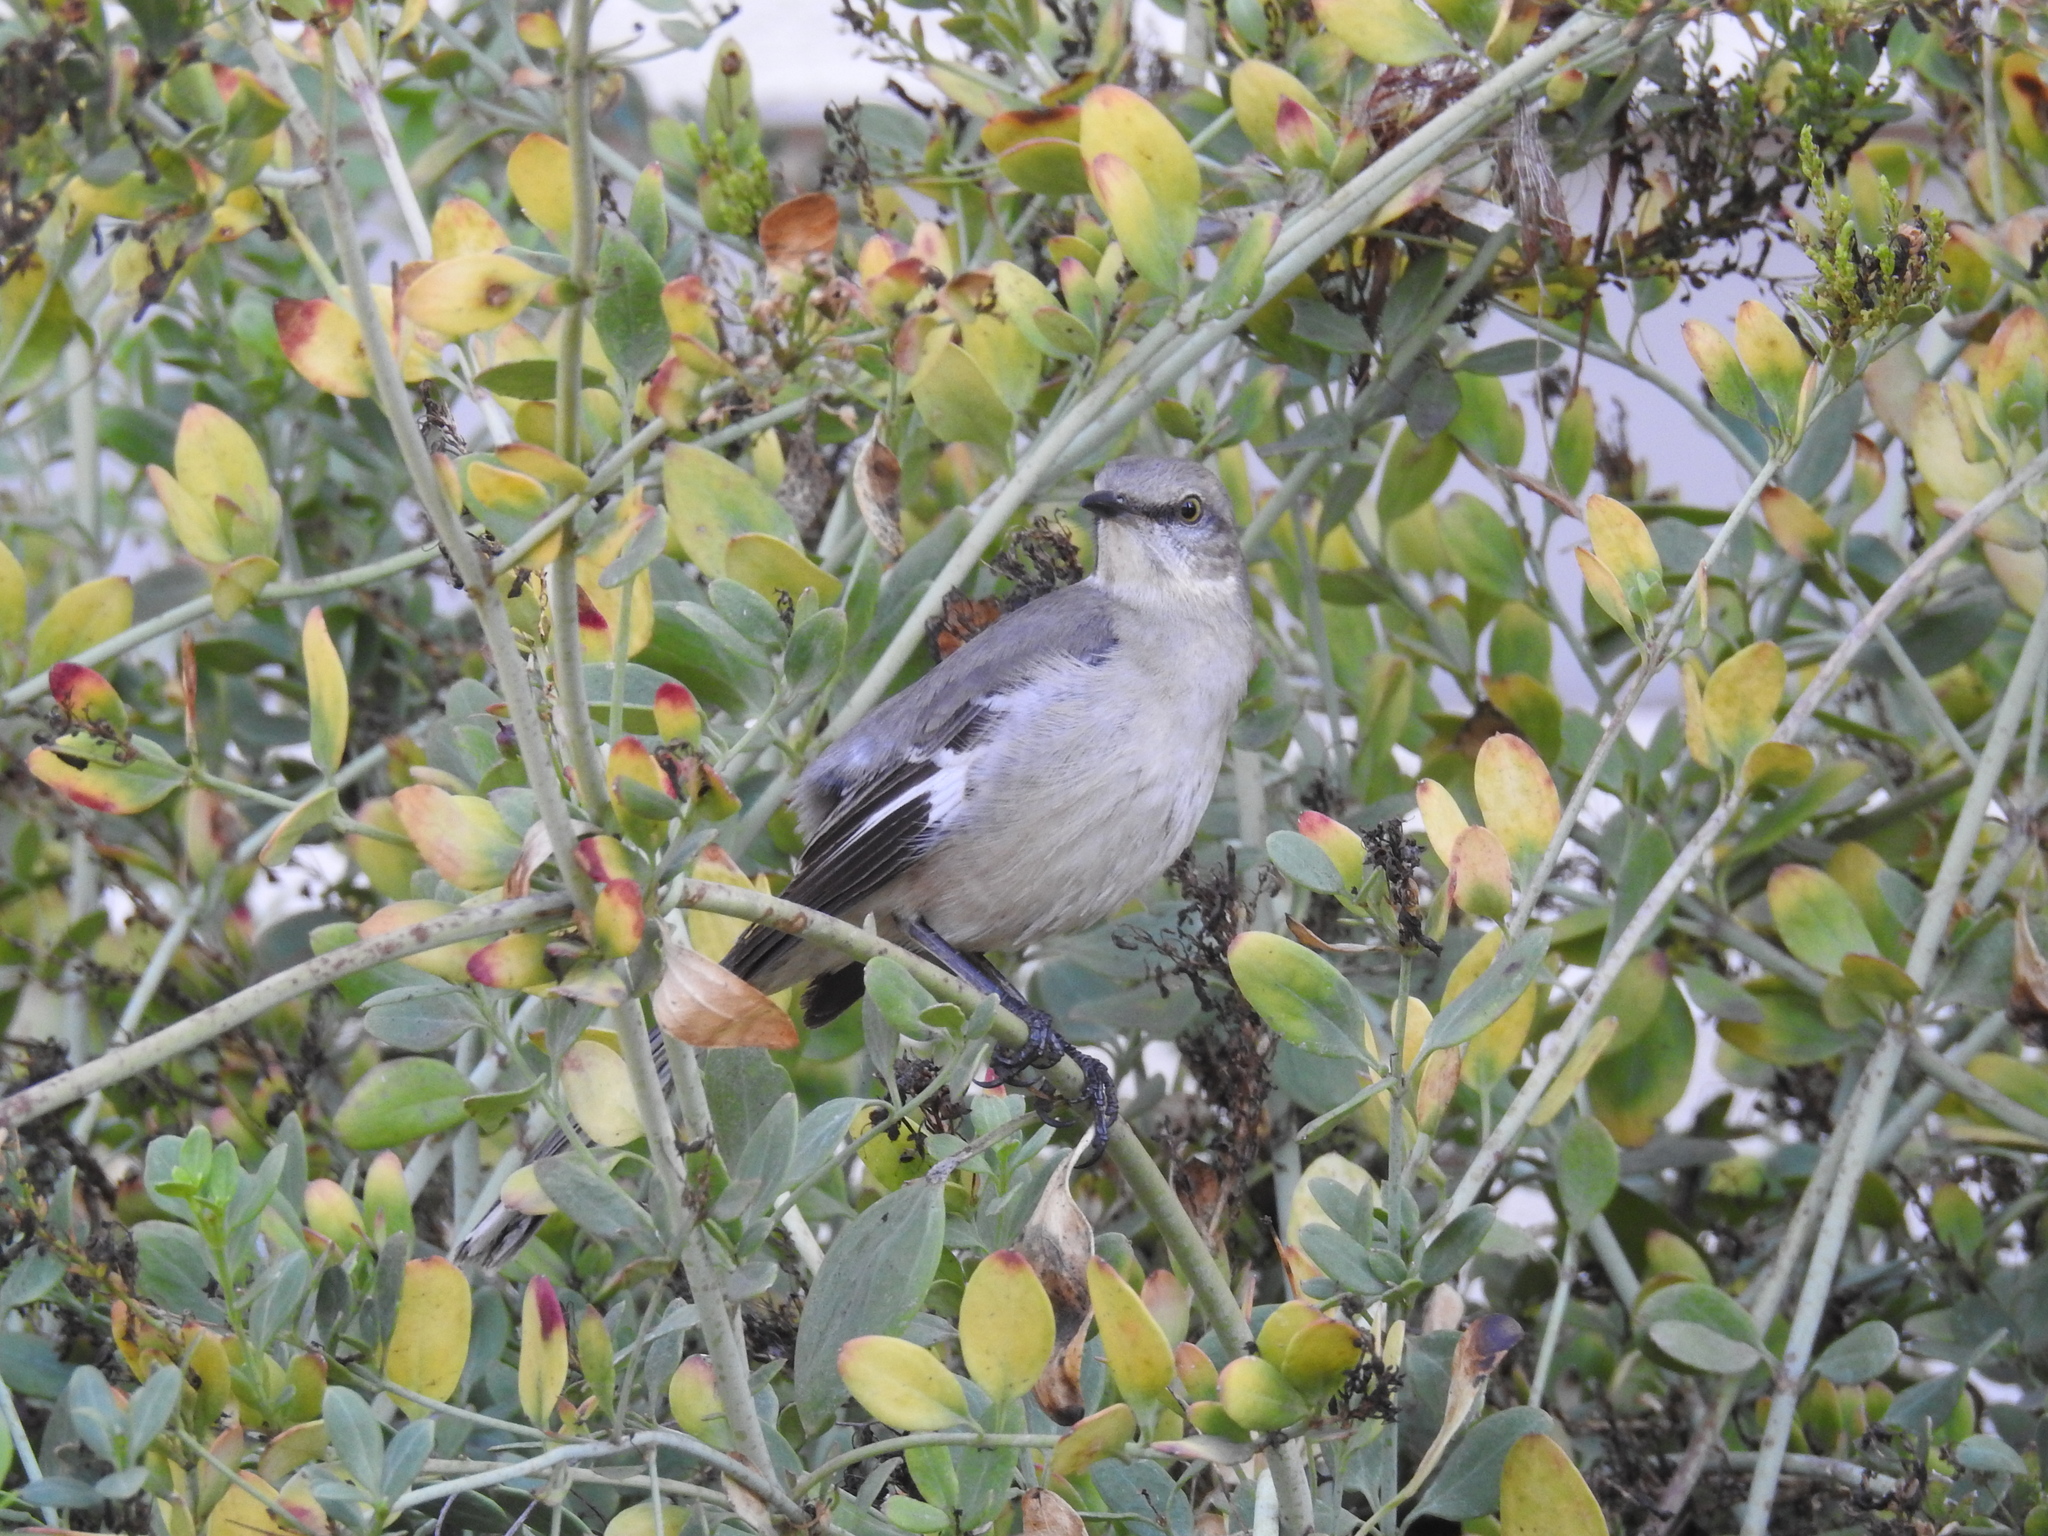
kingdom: Animalia
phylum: Chordata
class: Aves
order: Passeriformes
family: Mimidae
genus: Mimus
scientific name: Mimus polyglottos
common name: Northern mockingbird
